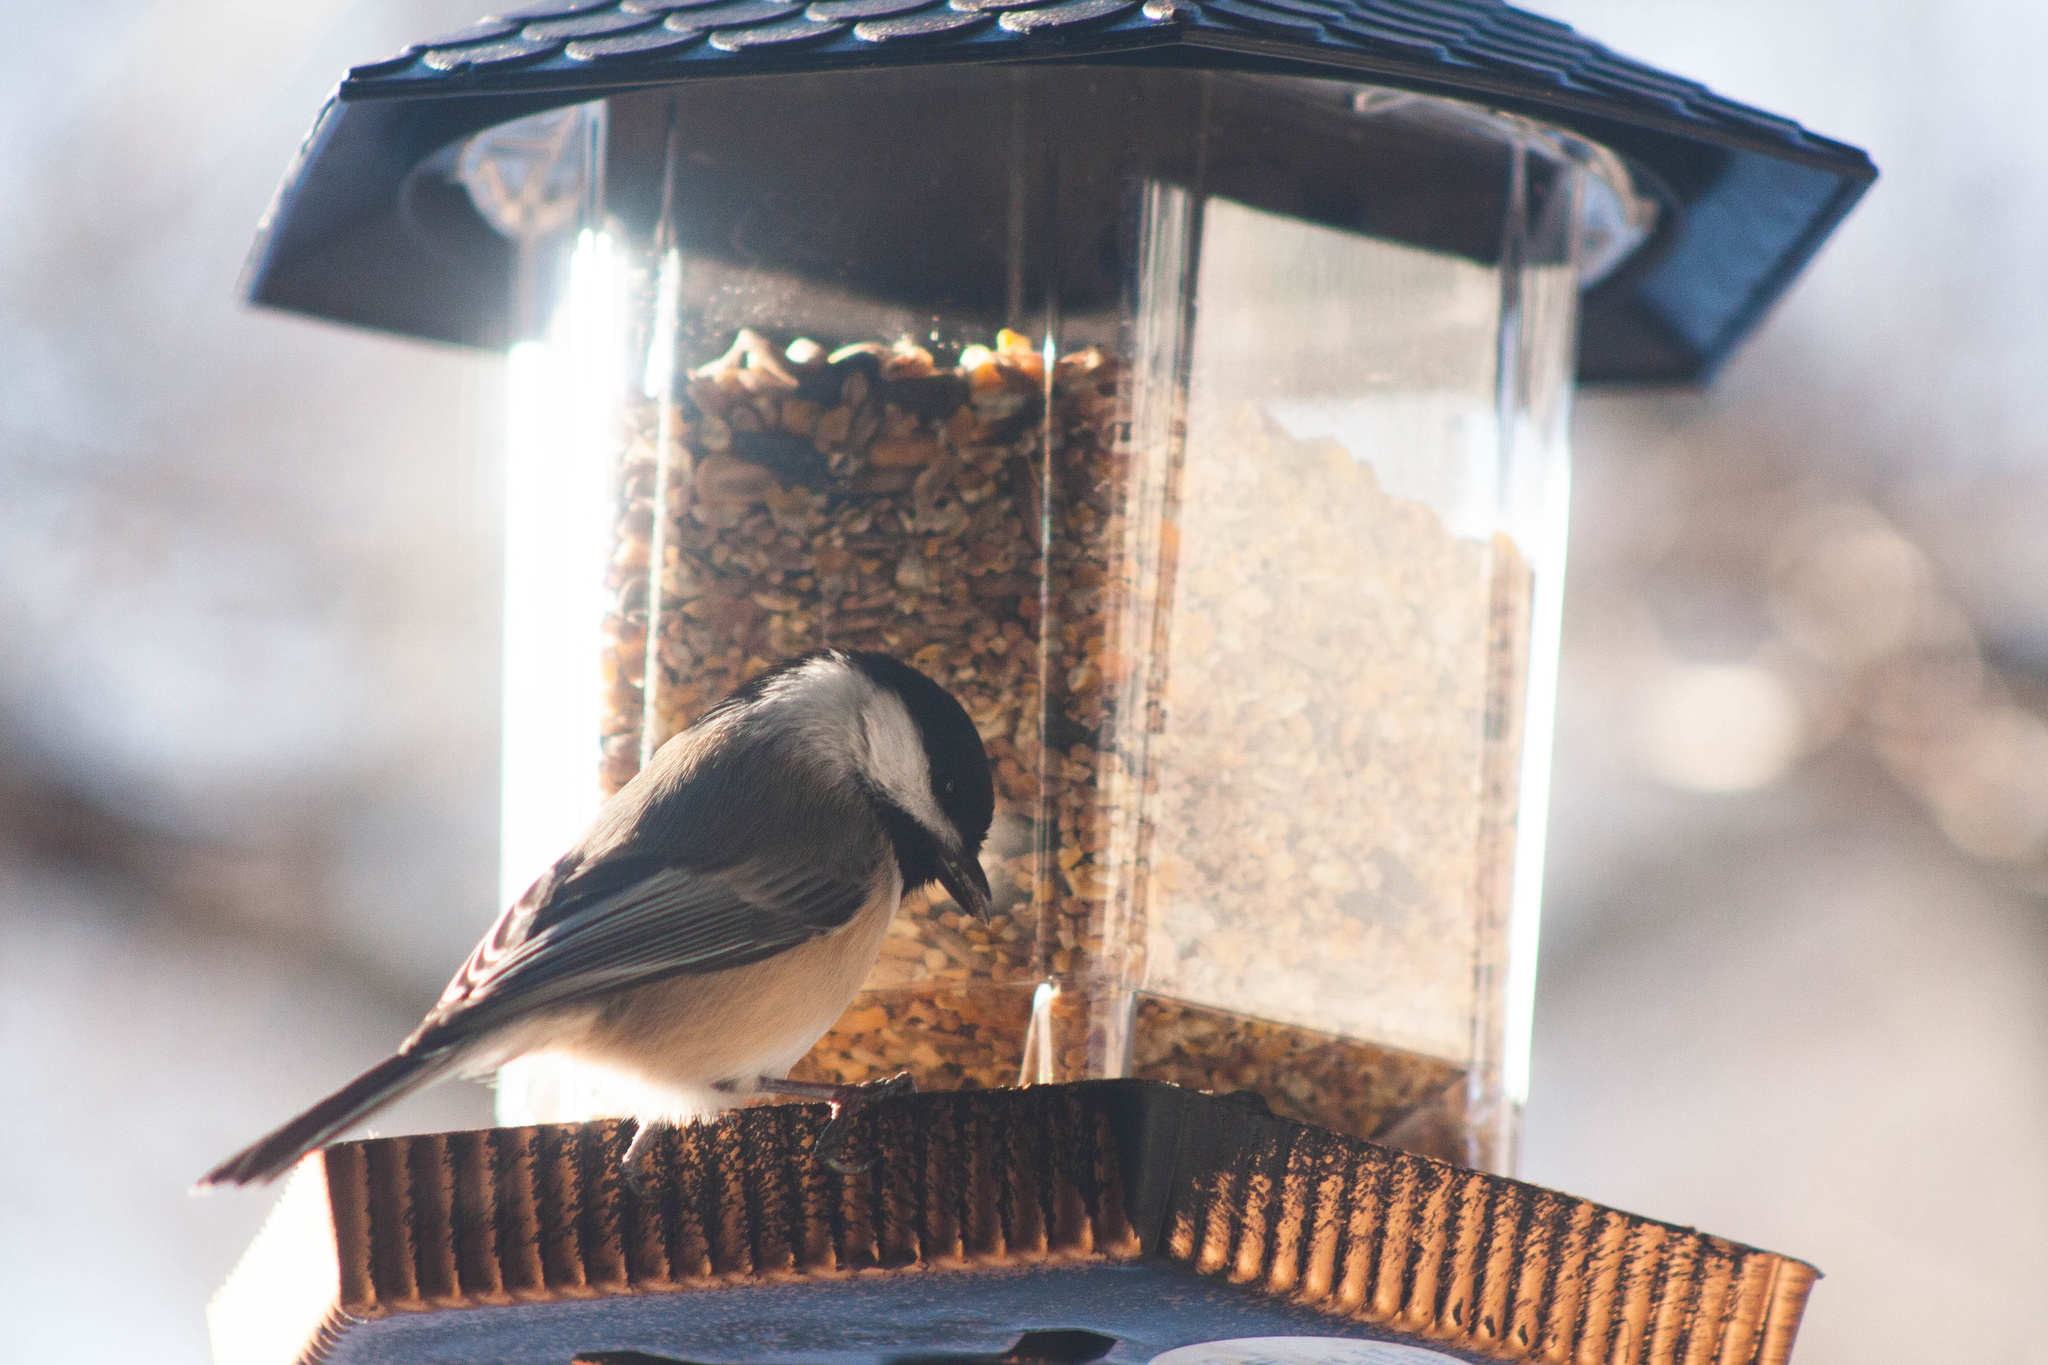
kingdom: Animalia
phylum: Chordata
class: Aves
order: Passeriformes
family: Paridae
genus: Poecile
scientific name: Poecile atricapillus
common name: Black-capped chickadee
